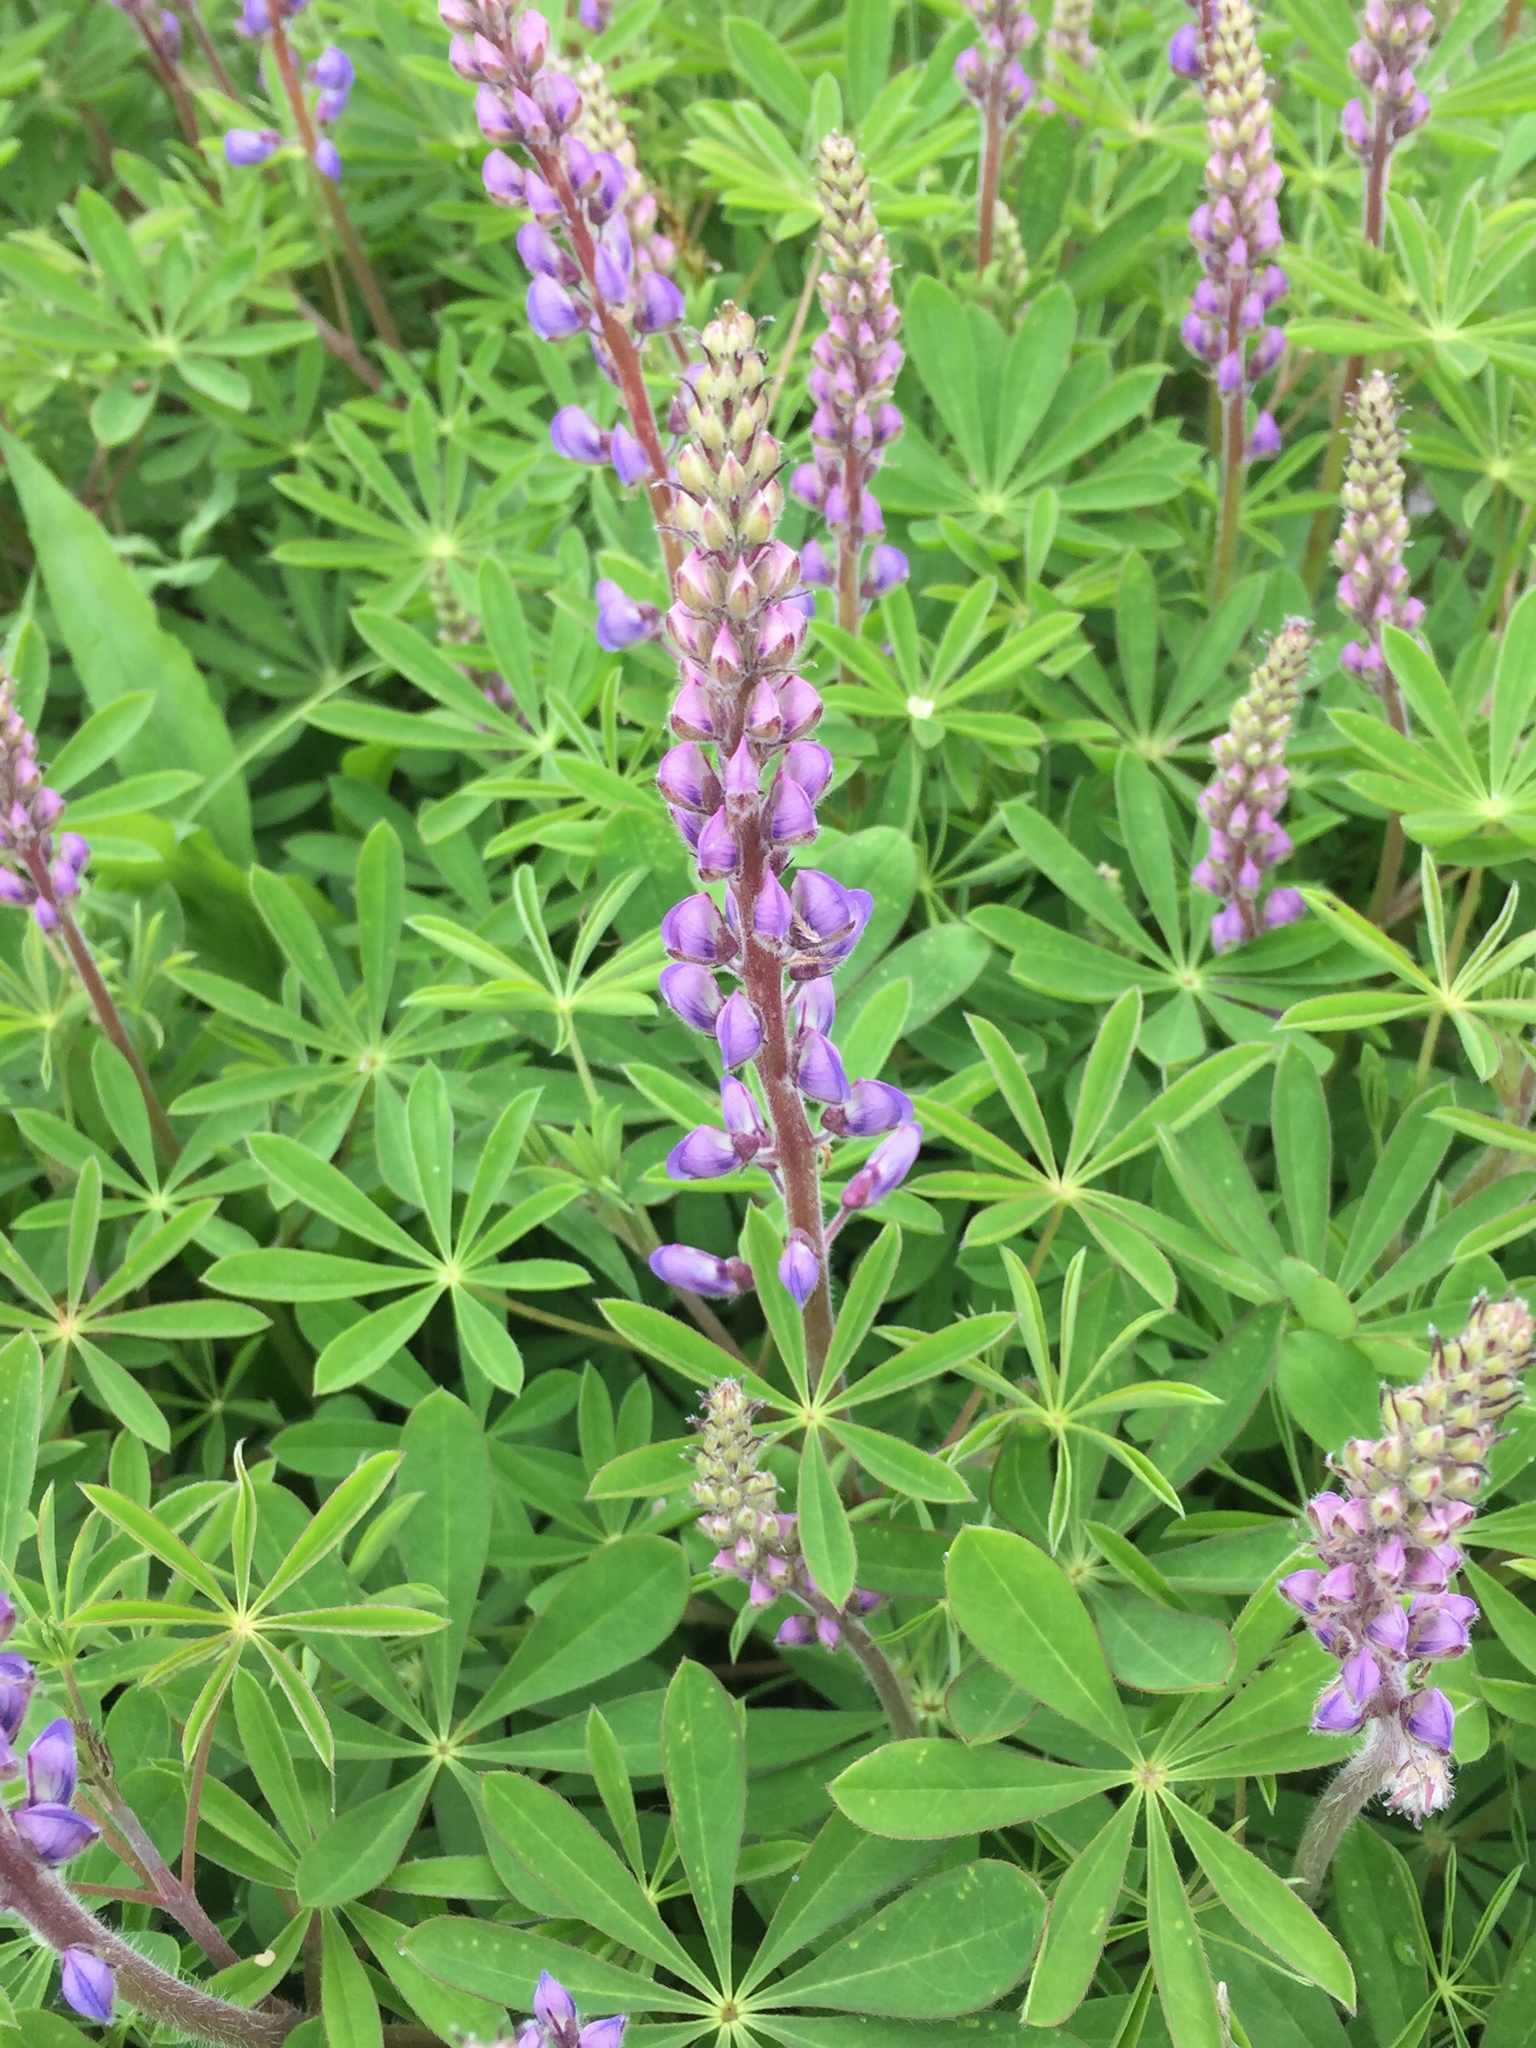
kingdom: Plantae
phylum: Tracheophyta
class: Magnoliopsida
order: Fabales
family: Fabaceae
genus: Lupinus
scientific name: Lupinus perennis
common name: Sundial lupine
